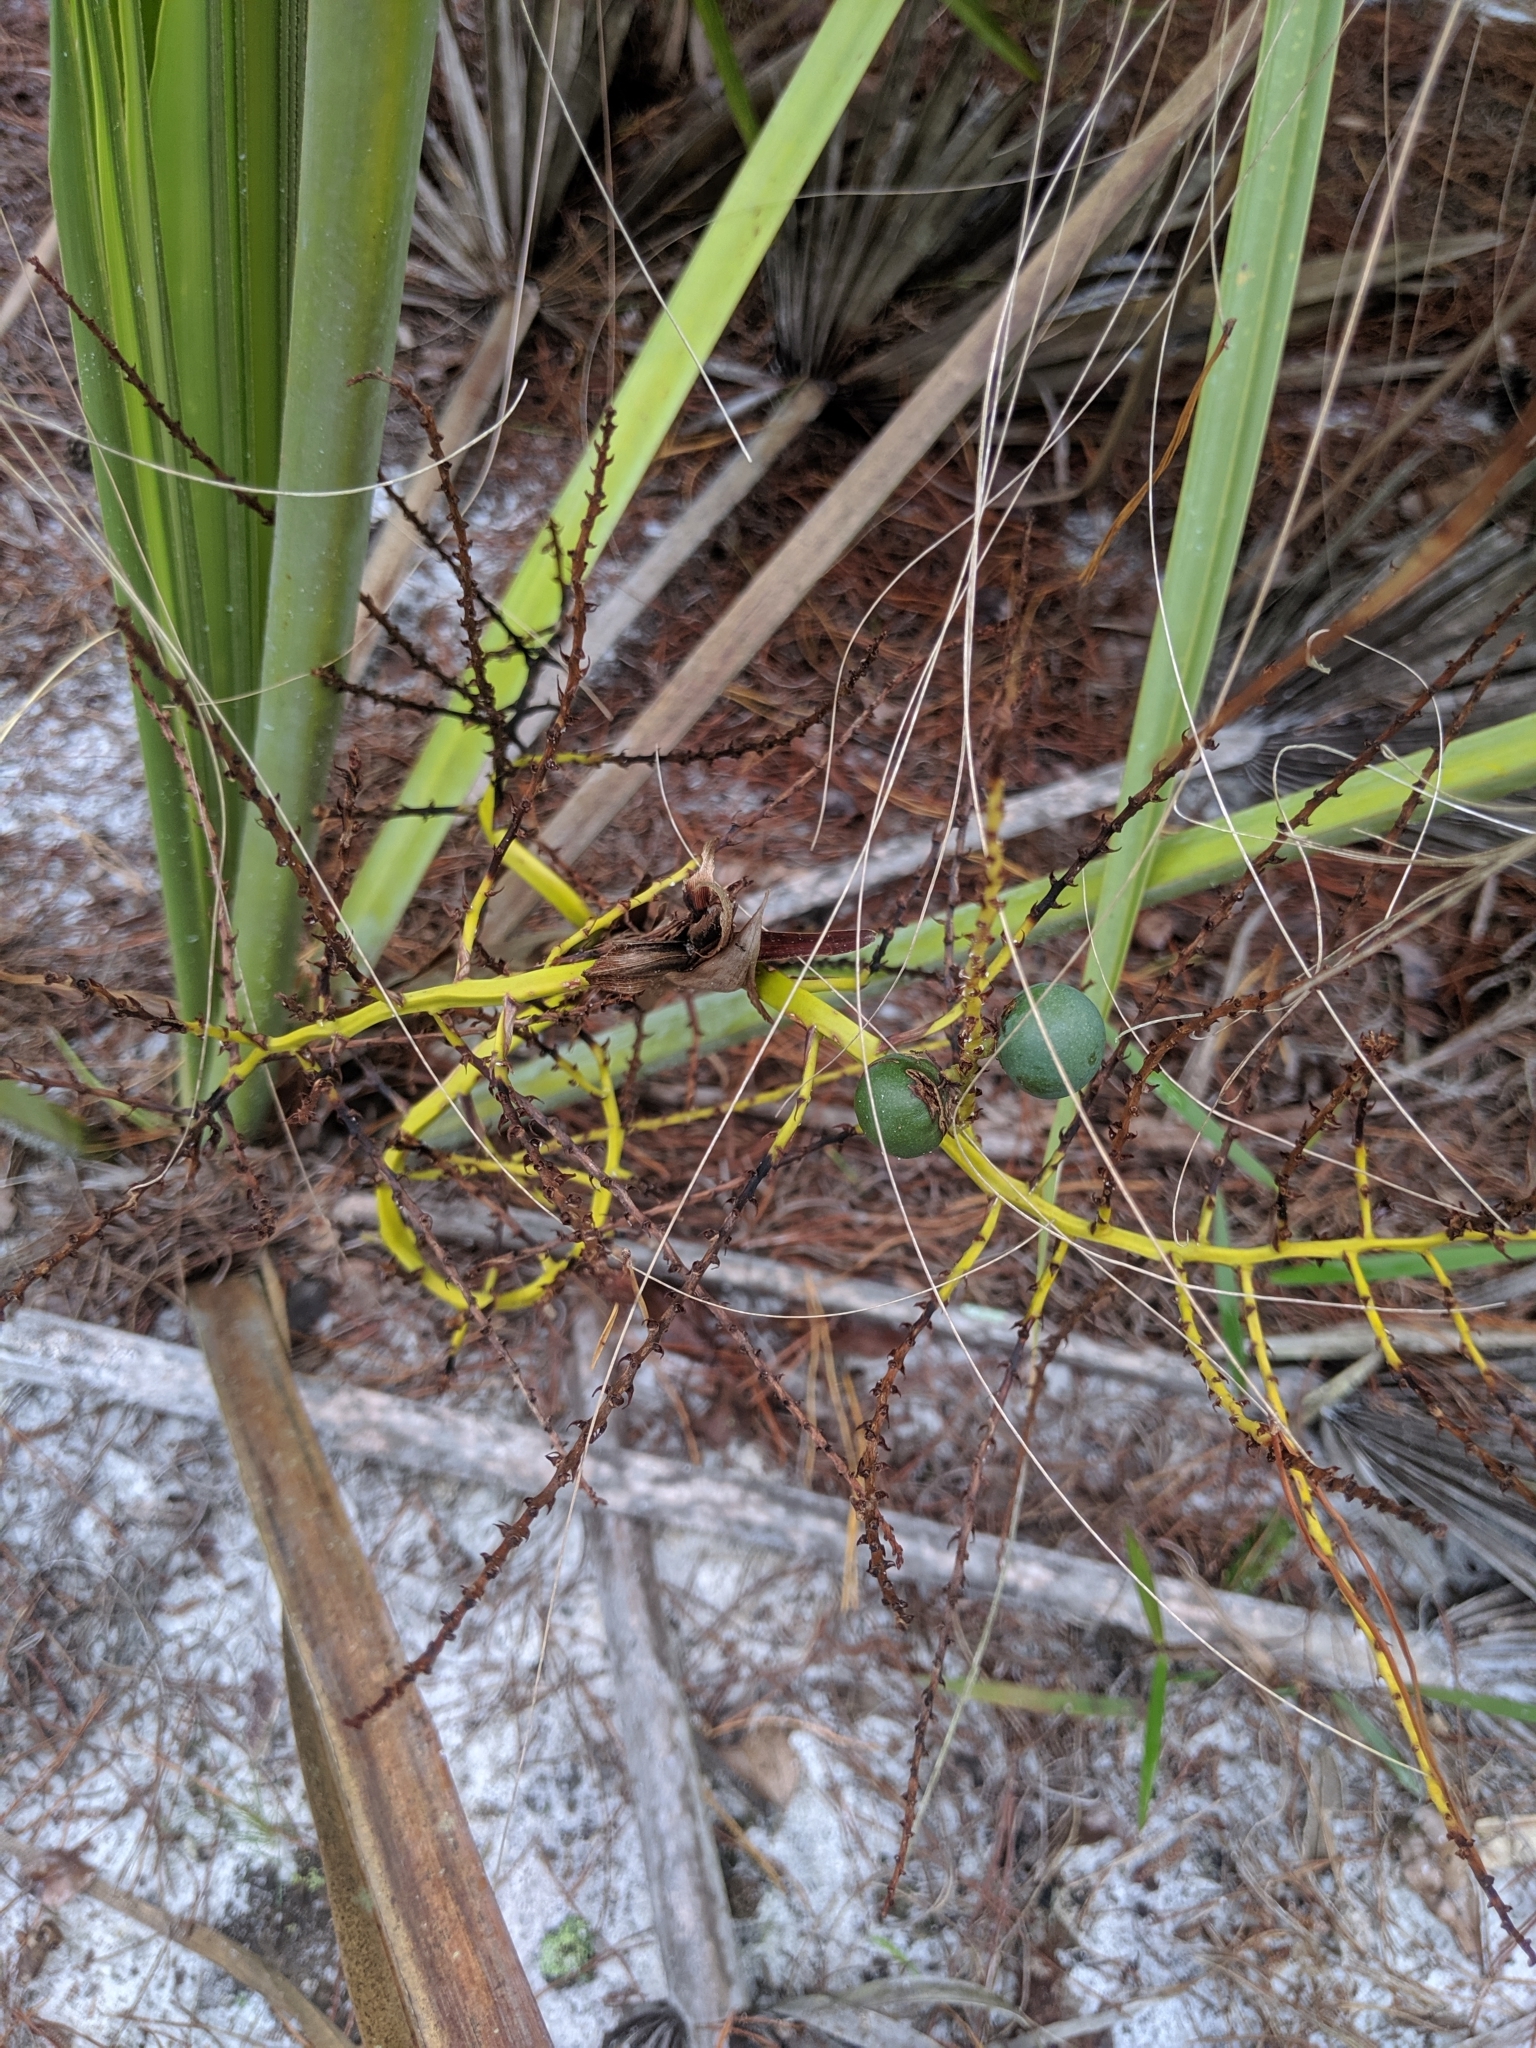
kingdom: Plantae
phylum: Tracheophyta
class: Liliopsida
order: Arecales
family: Arecaceae
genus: Sabal
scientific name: Sabal etonia
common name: Dwarf palmetto
